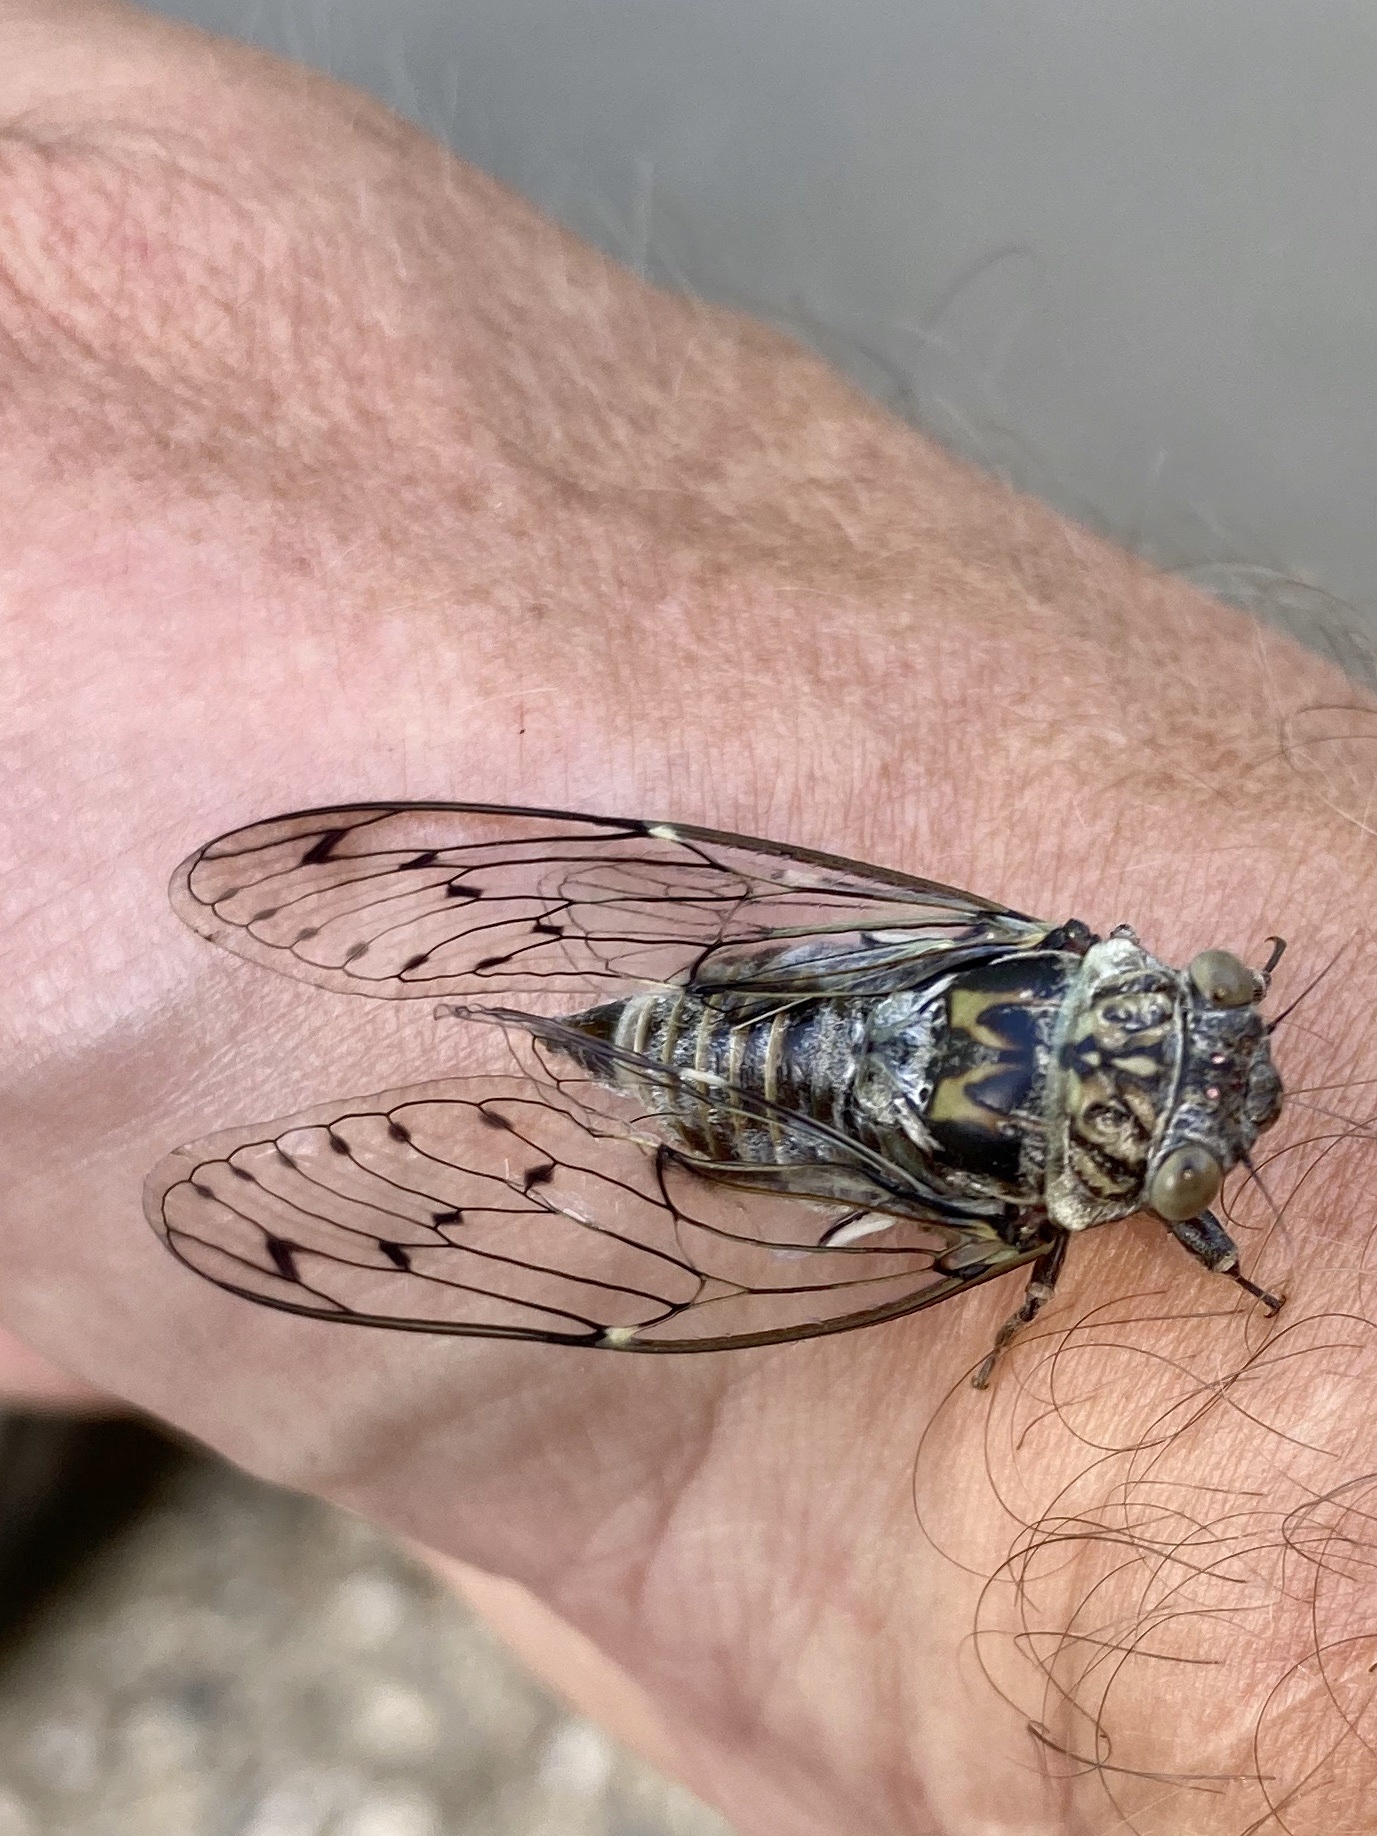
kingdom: Animalia
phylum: Arthropoda
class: Insecta
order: Hemiptera
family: Cicadidae
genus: Cicada
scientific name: Cicada orni
